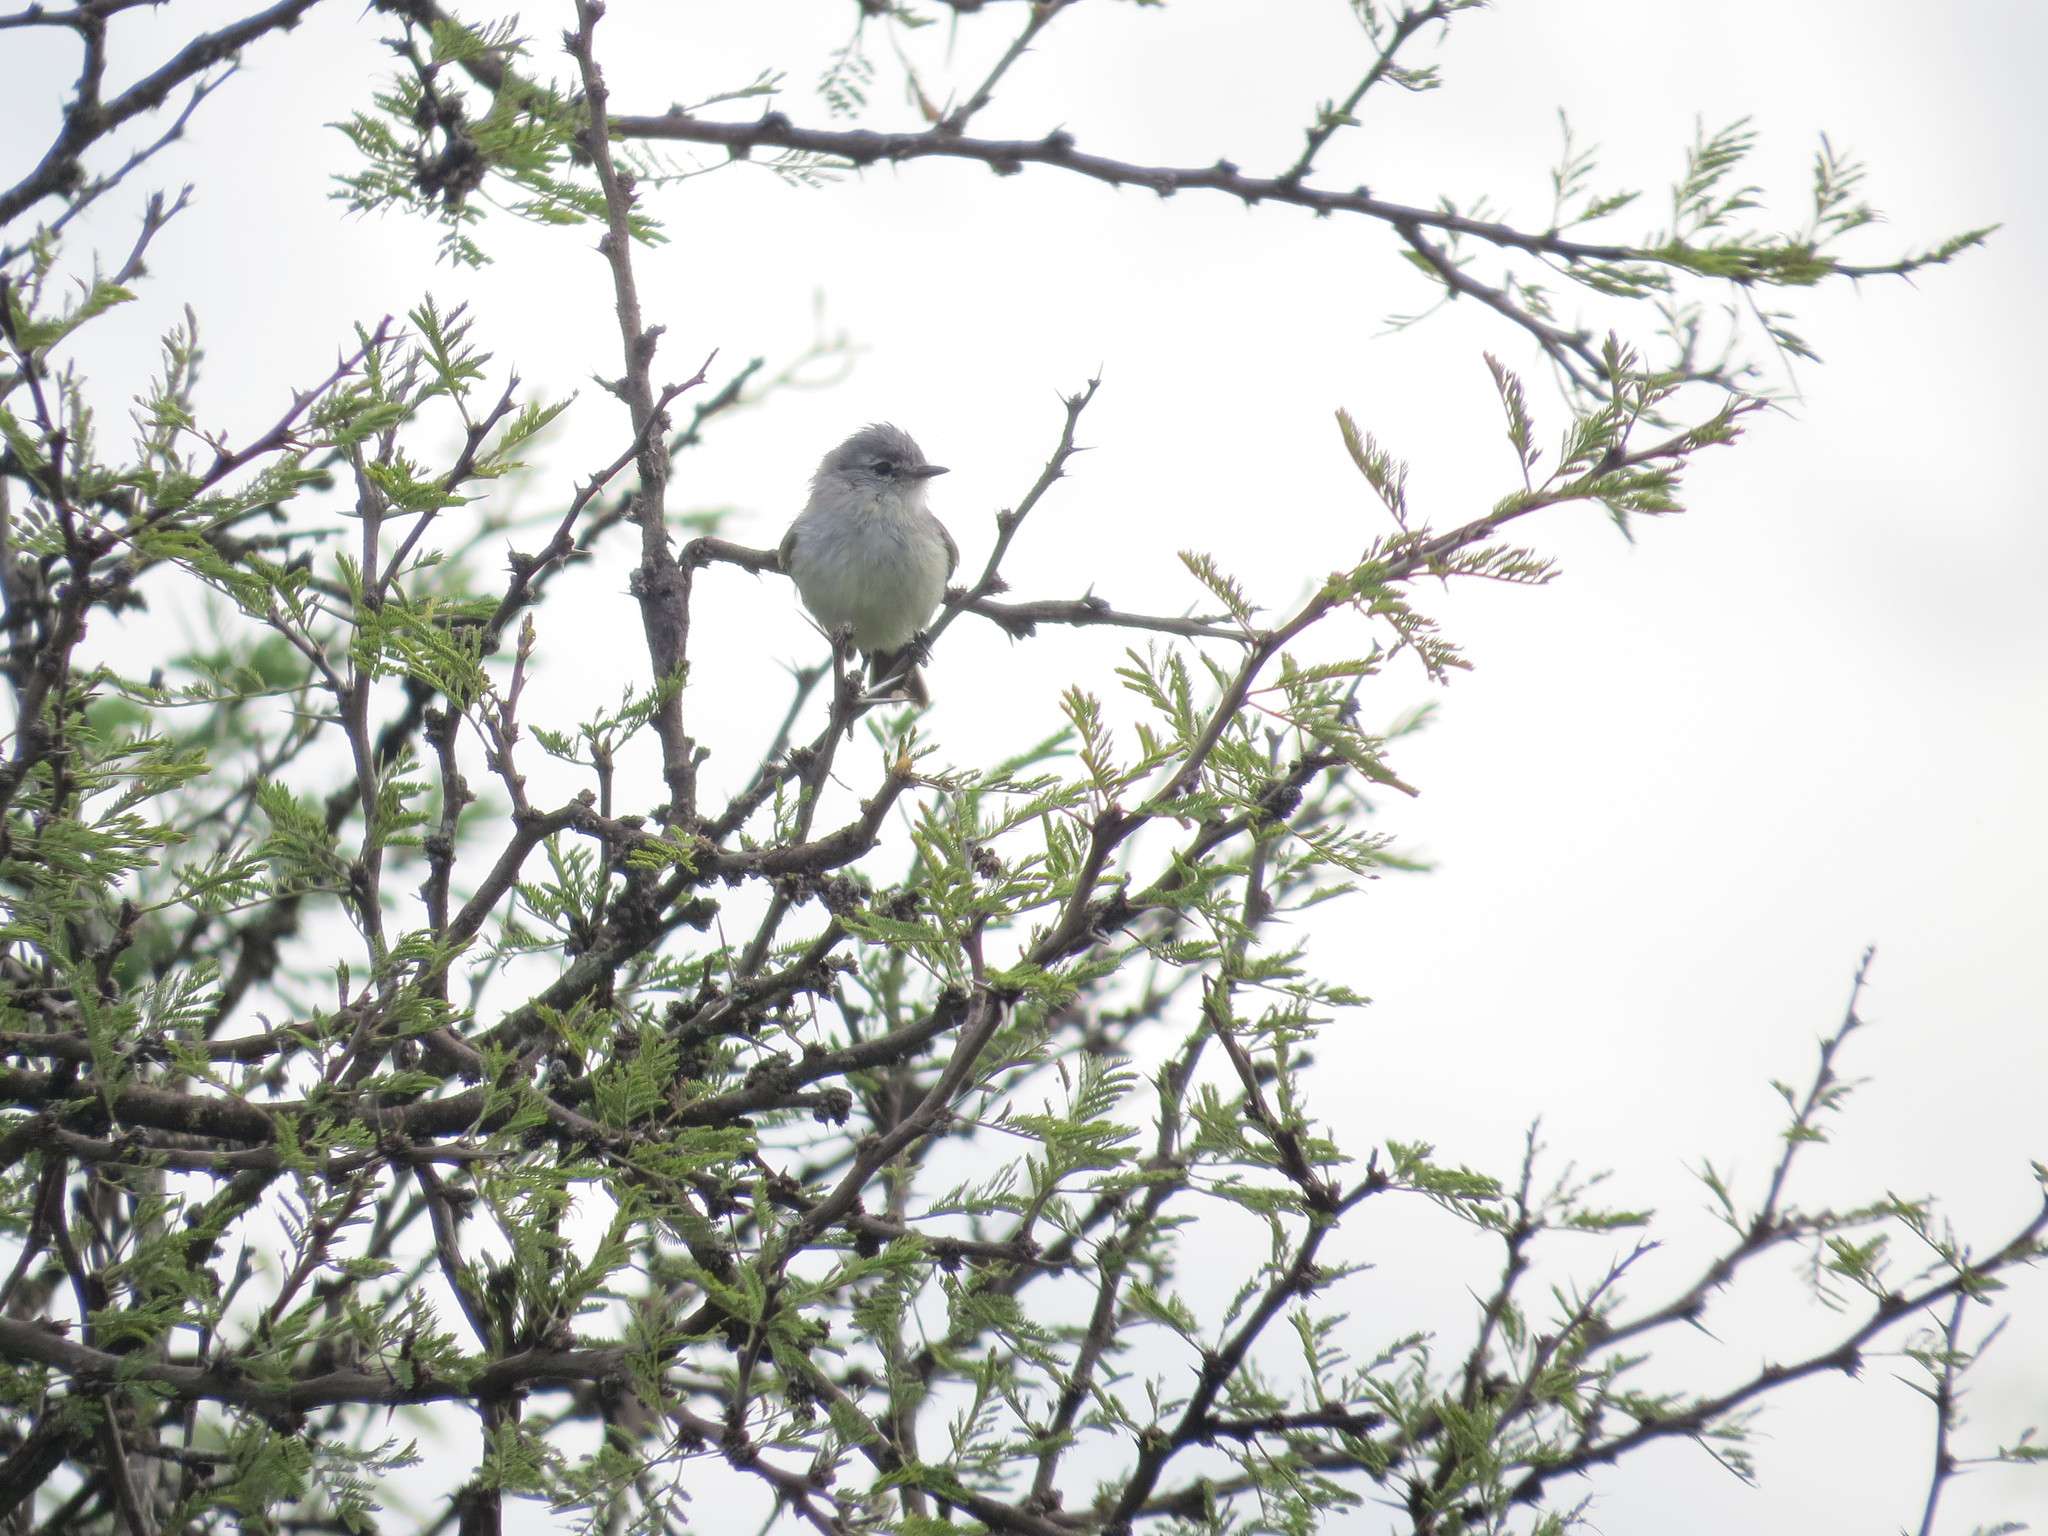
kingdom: Animalia
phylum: Chordata
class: Aves
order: Passeriformes
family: Tyrannidae
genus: Serpophaga
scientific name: Serpophaga subcristata
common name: White-crested tyrannulet
